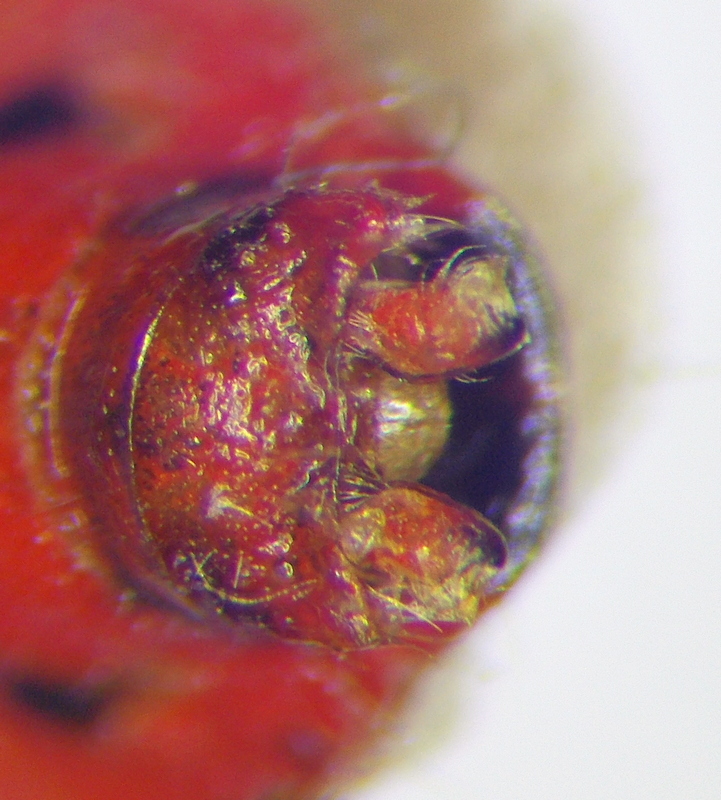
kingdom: Animalia
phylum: Arthropoda
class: Insecta
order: Hemiptera
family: Rhopalidae
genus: Corizus
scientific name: Corizus hyoscyami
